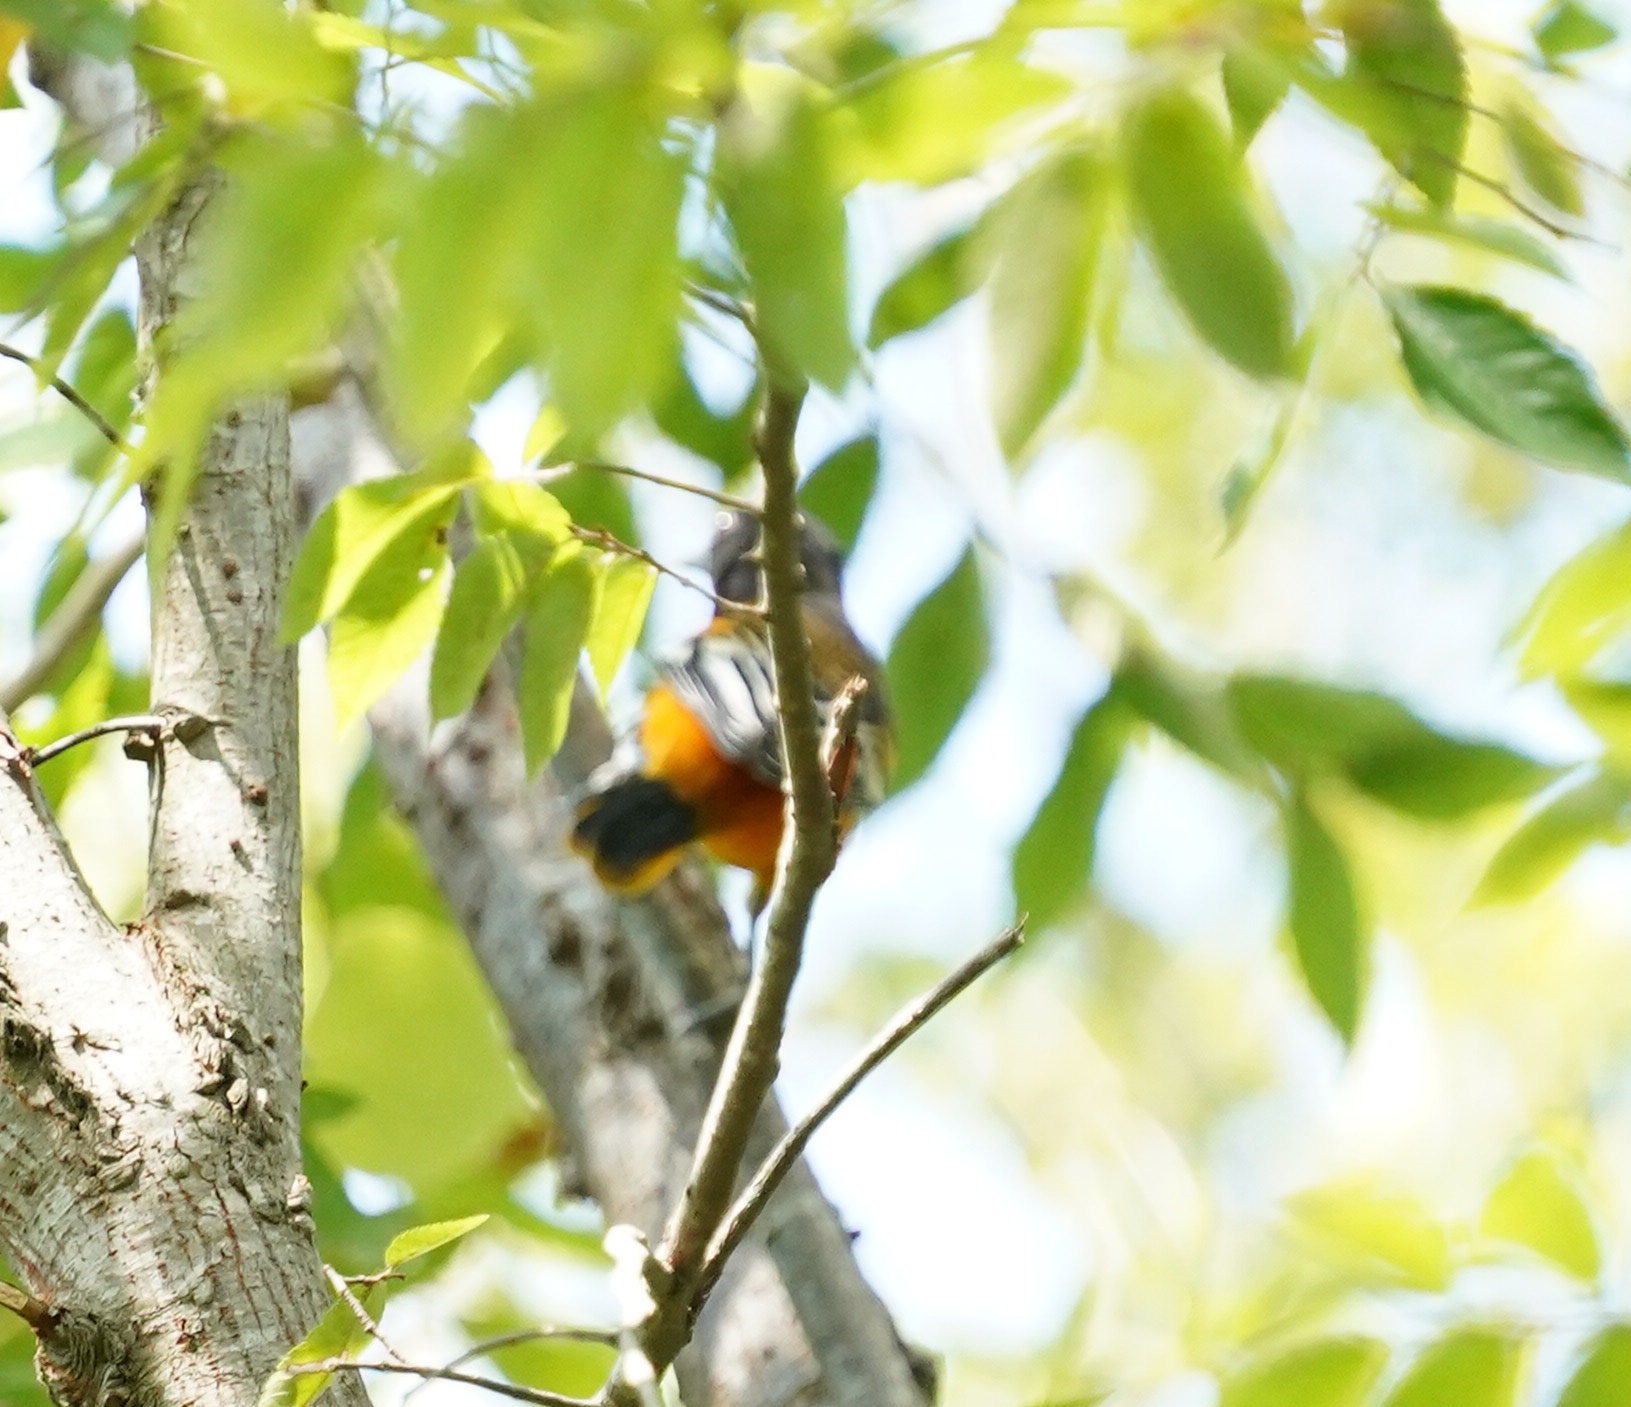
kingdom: Animalia
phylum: Chordata
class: Aves
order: Passeriformes
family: Icteridae
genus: Icterus
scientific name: Icterus galbula
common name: Baltimore oriole
